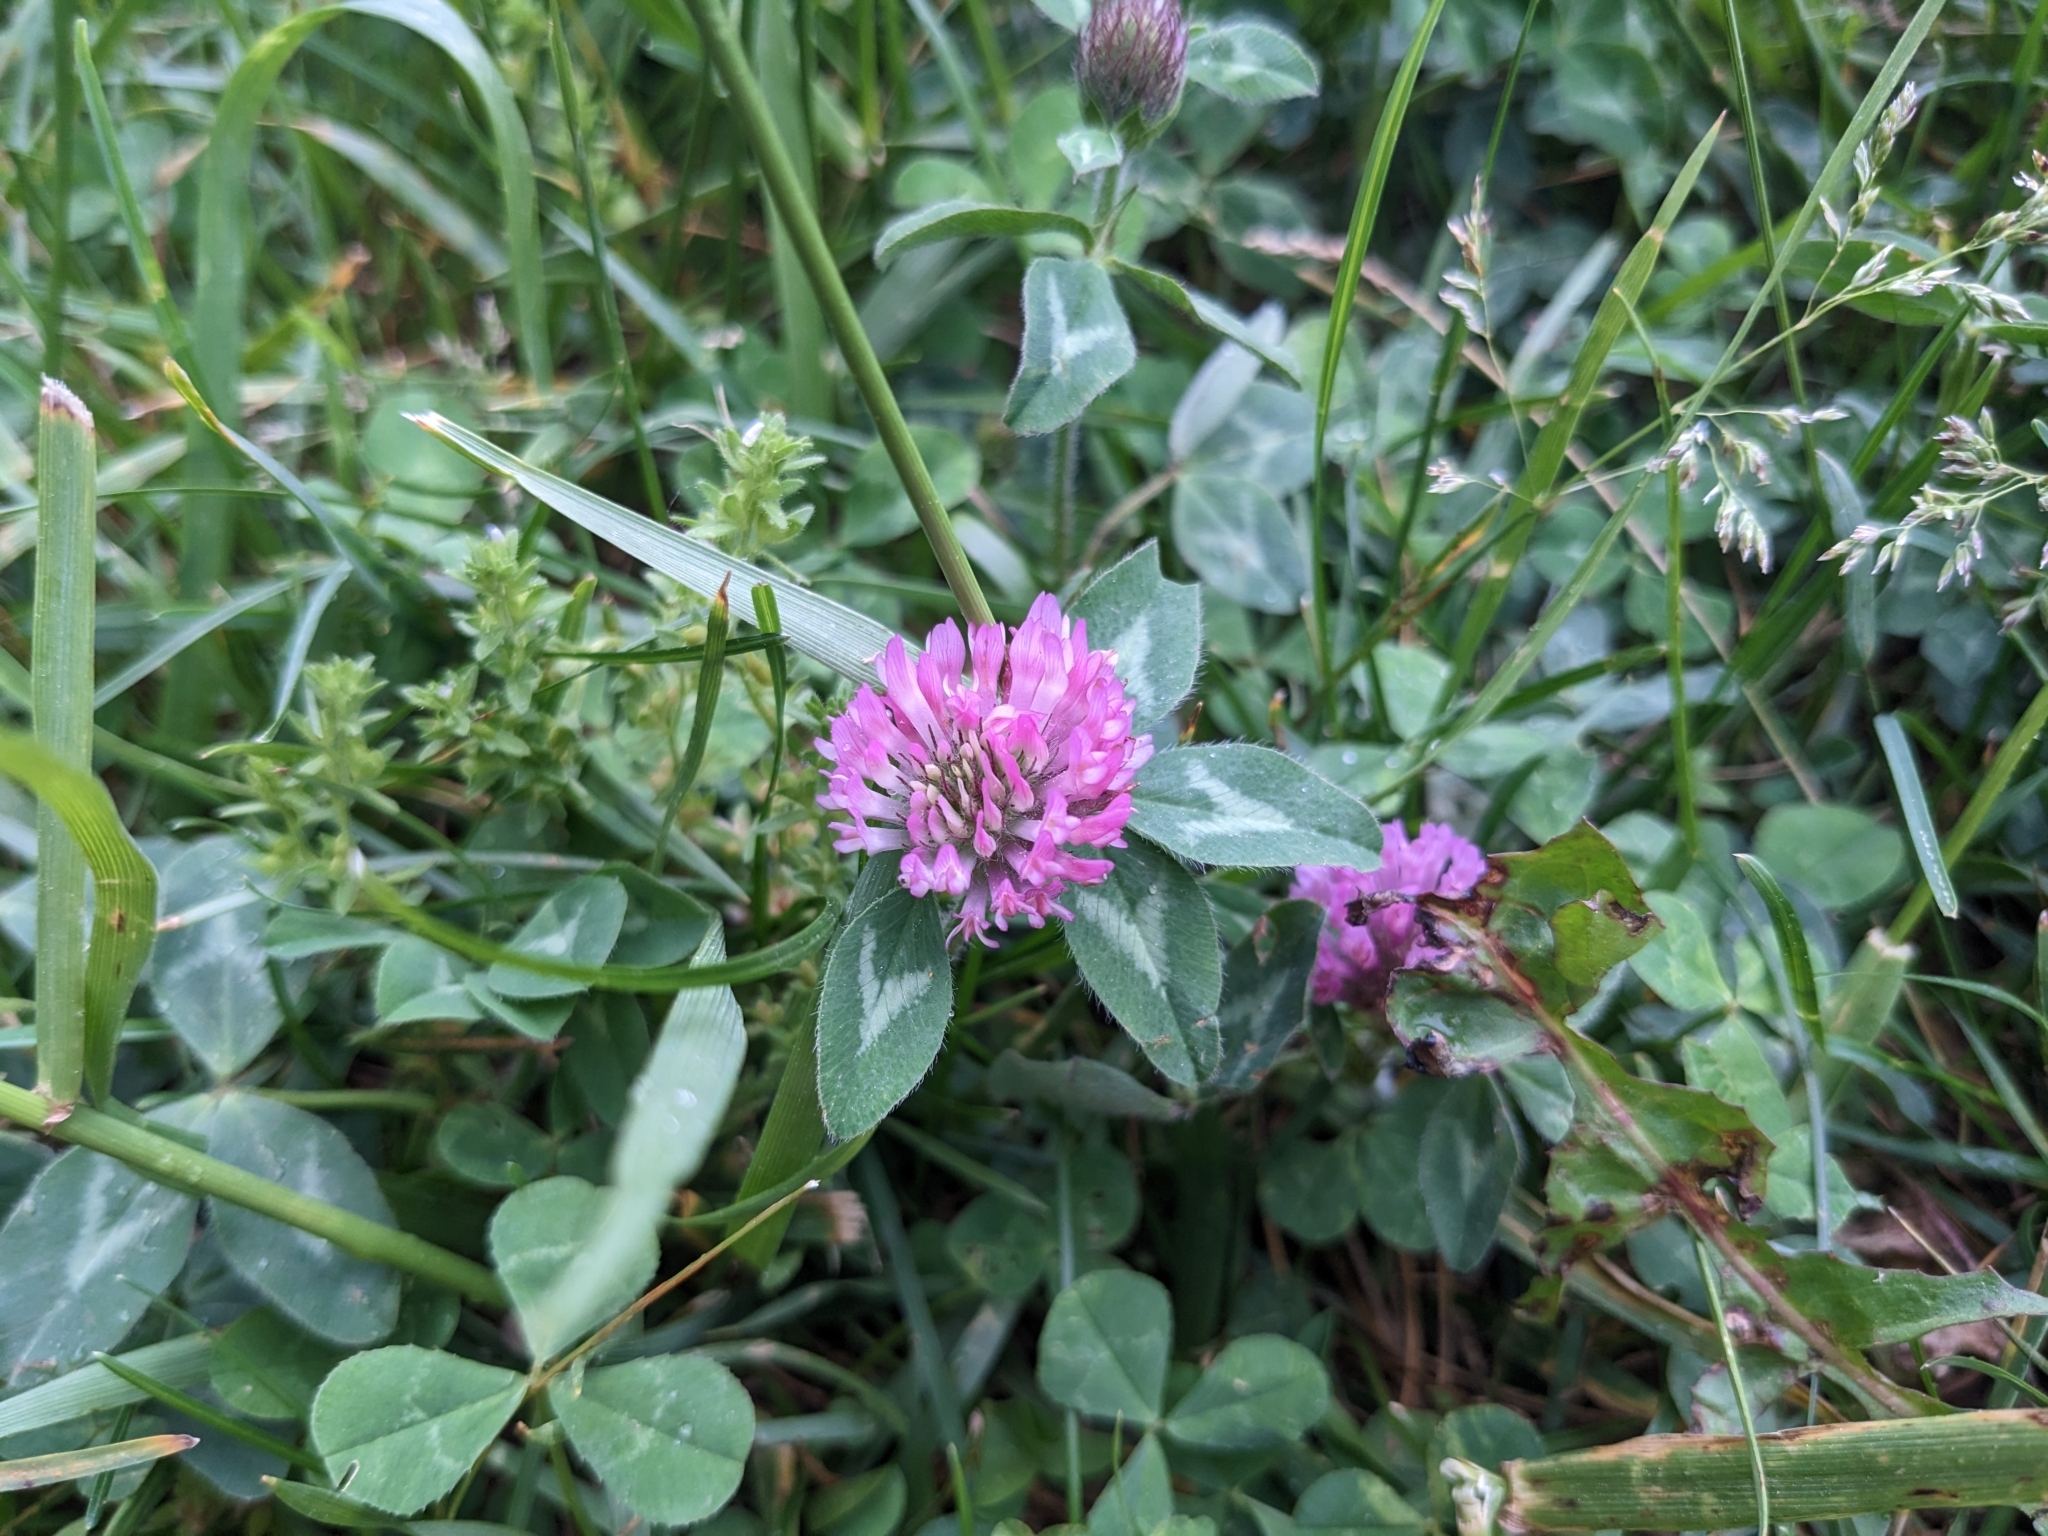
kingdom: Plantae
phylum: Tracheophyta
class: Magnoliopsida
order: Fabales
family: Fabaceae
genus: Trifolium
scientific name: Trifolium pratense
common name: Red clover
